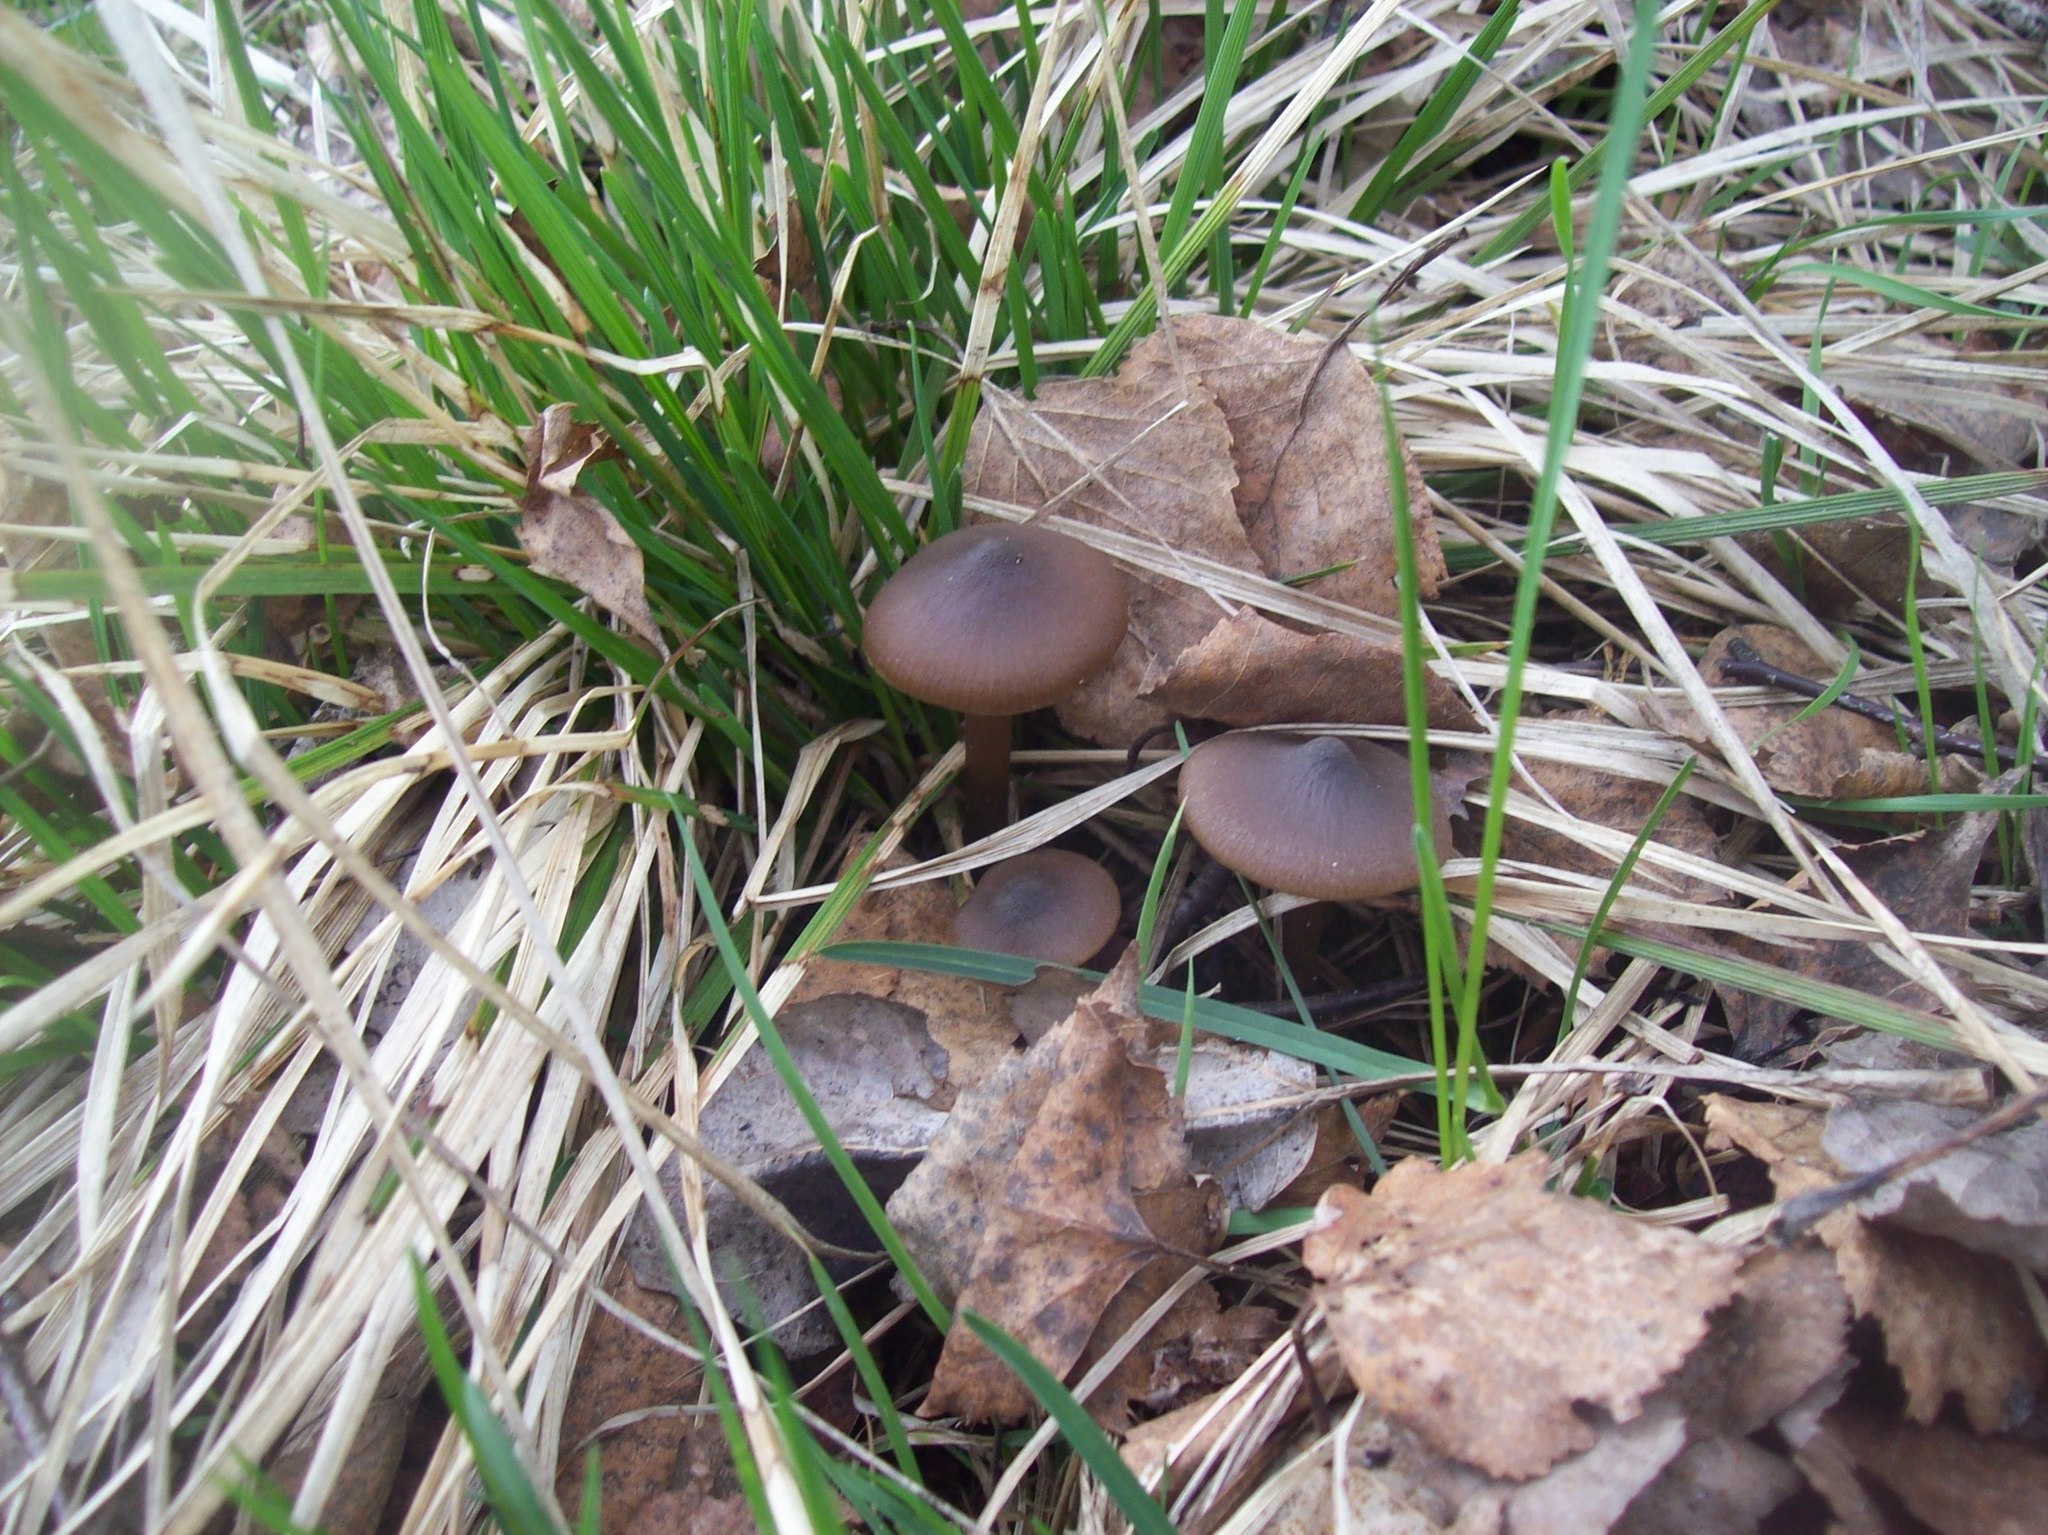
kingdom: Fungi
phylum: Basidiomycota
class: Agaricomycetes
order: Agaricales
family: Entolomataceae
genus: Entoloma
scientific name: Entoloma vernum
